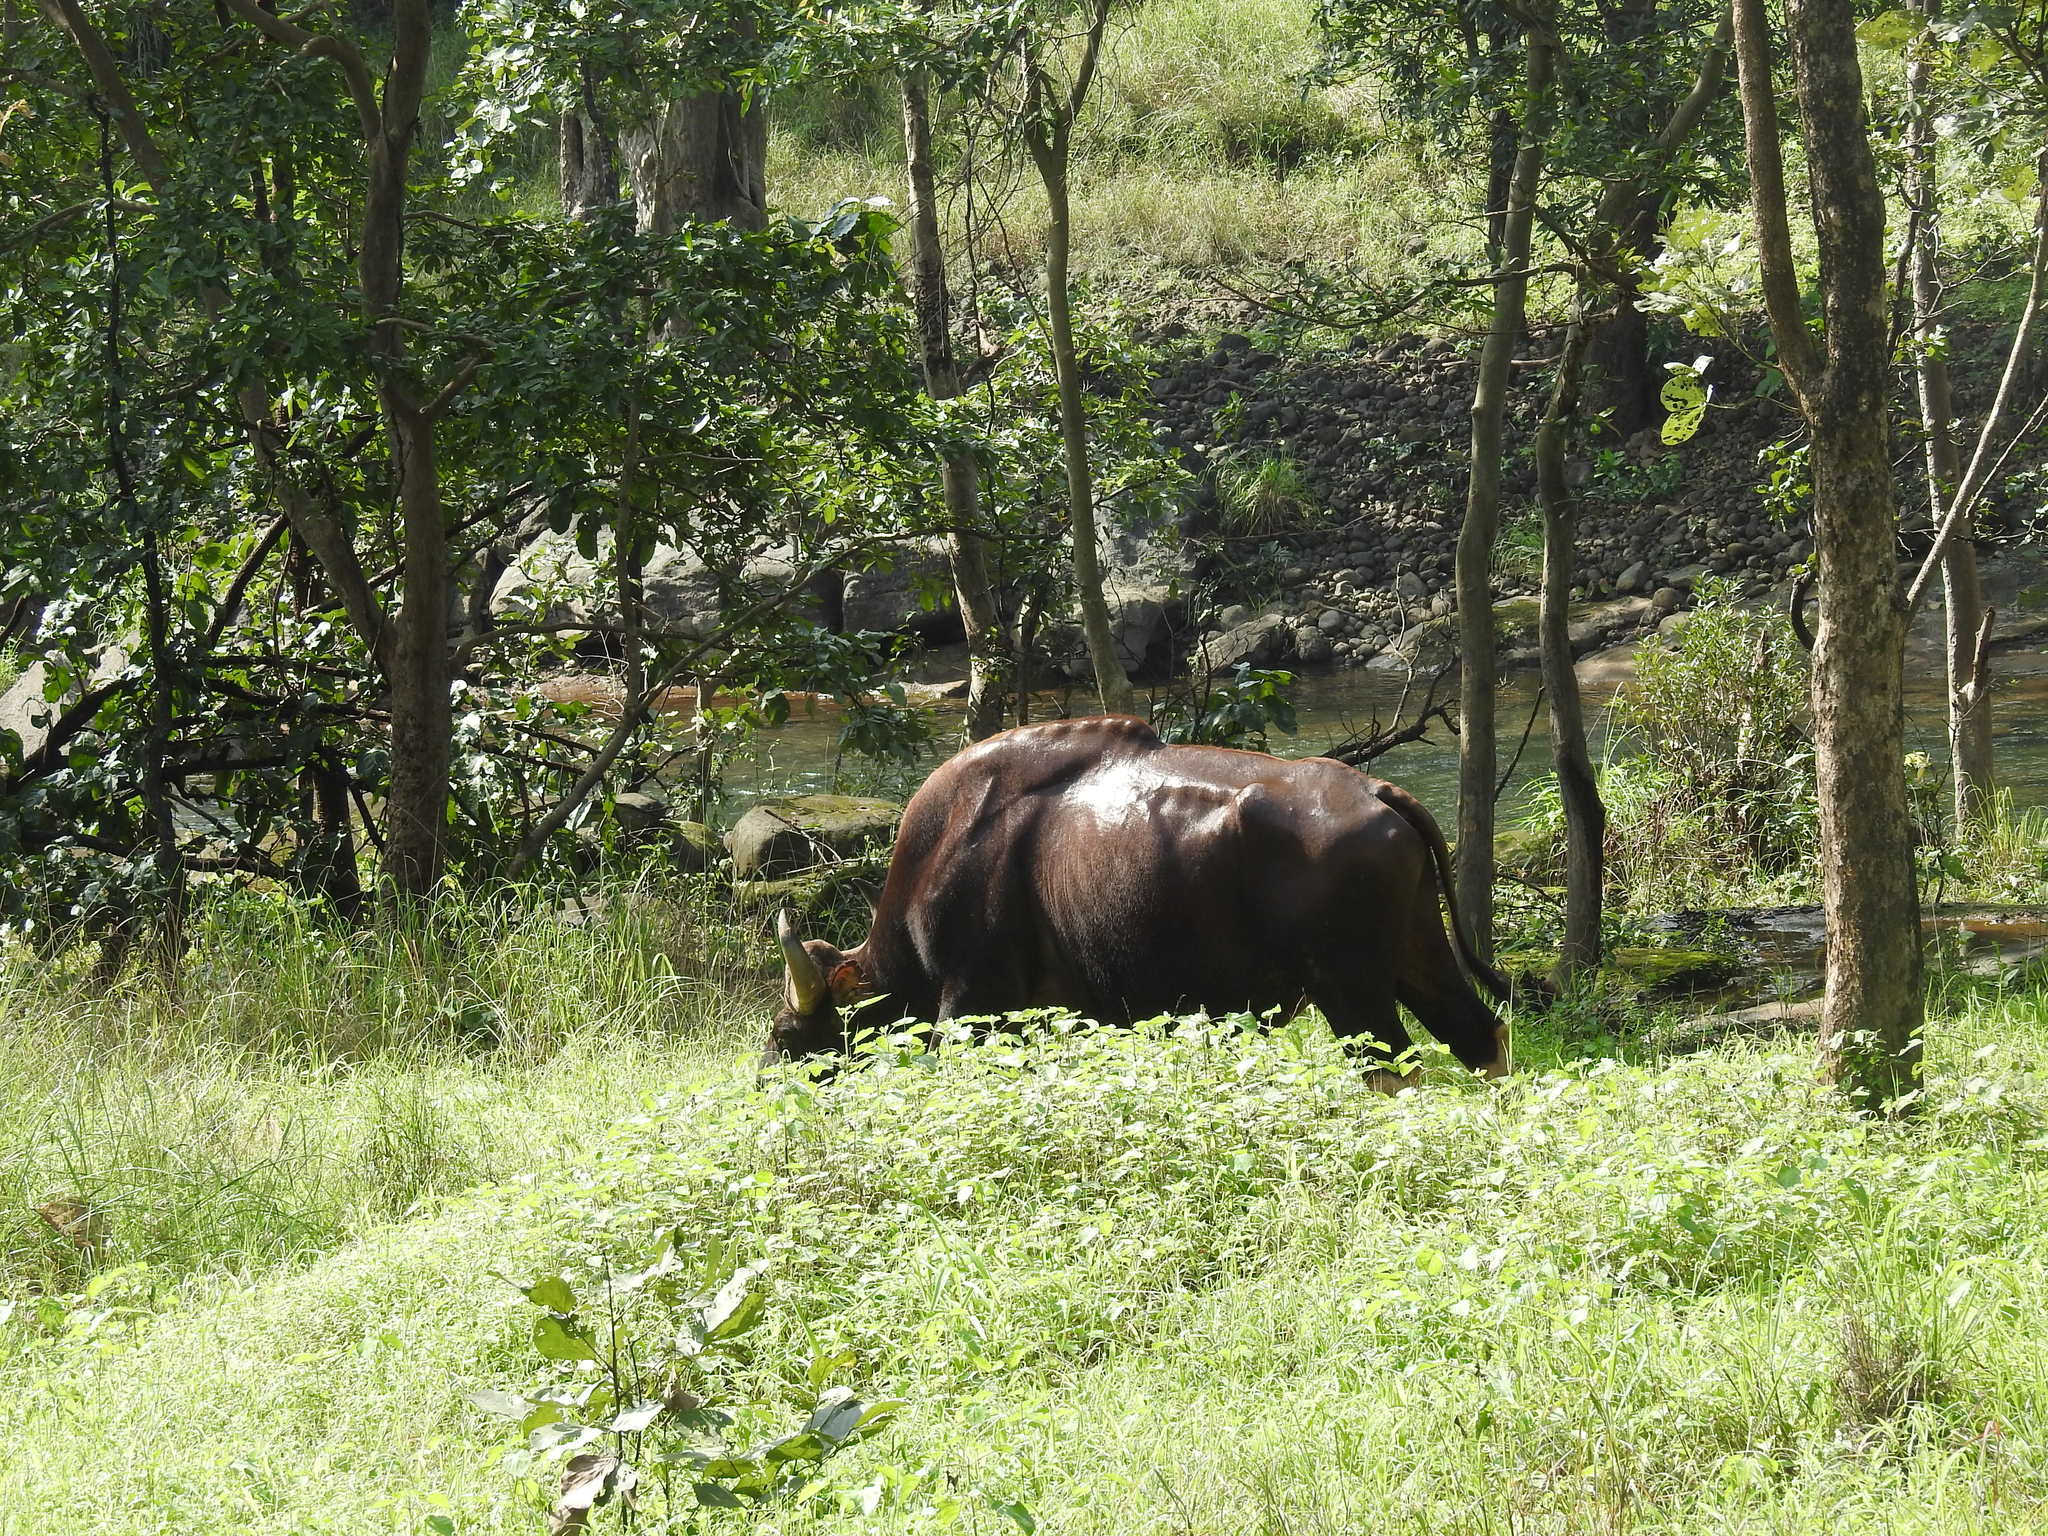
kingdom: Animalia
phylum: Chordata
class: Mammalia
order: Artiodactyla
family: Bovidae
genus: Bos
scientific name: Bos frontalis
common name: Gaur
